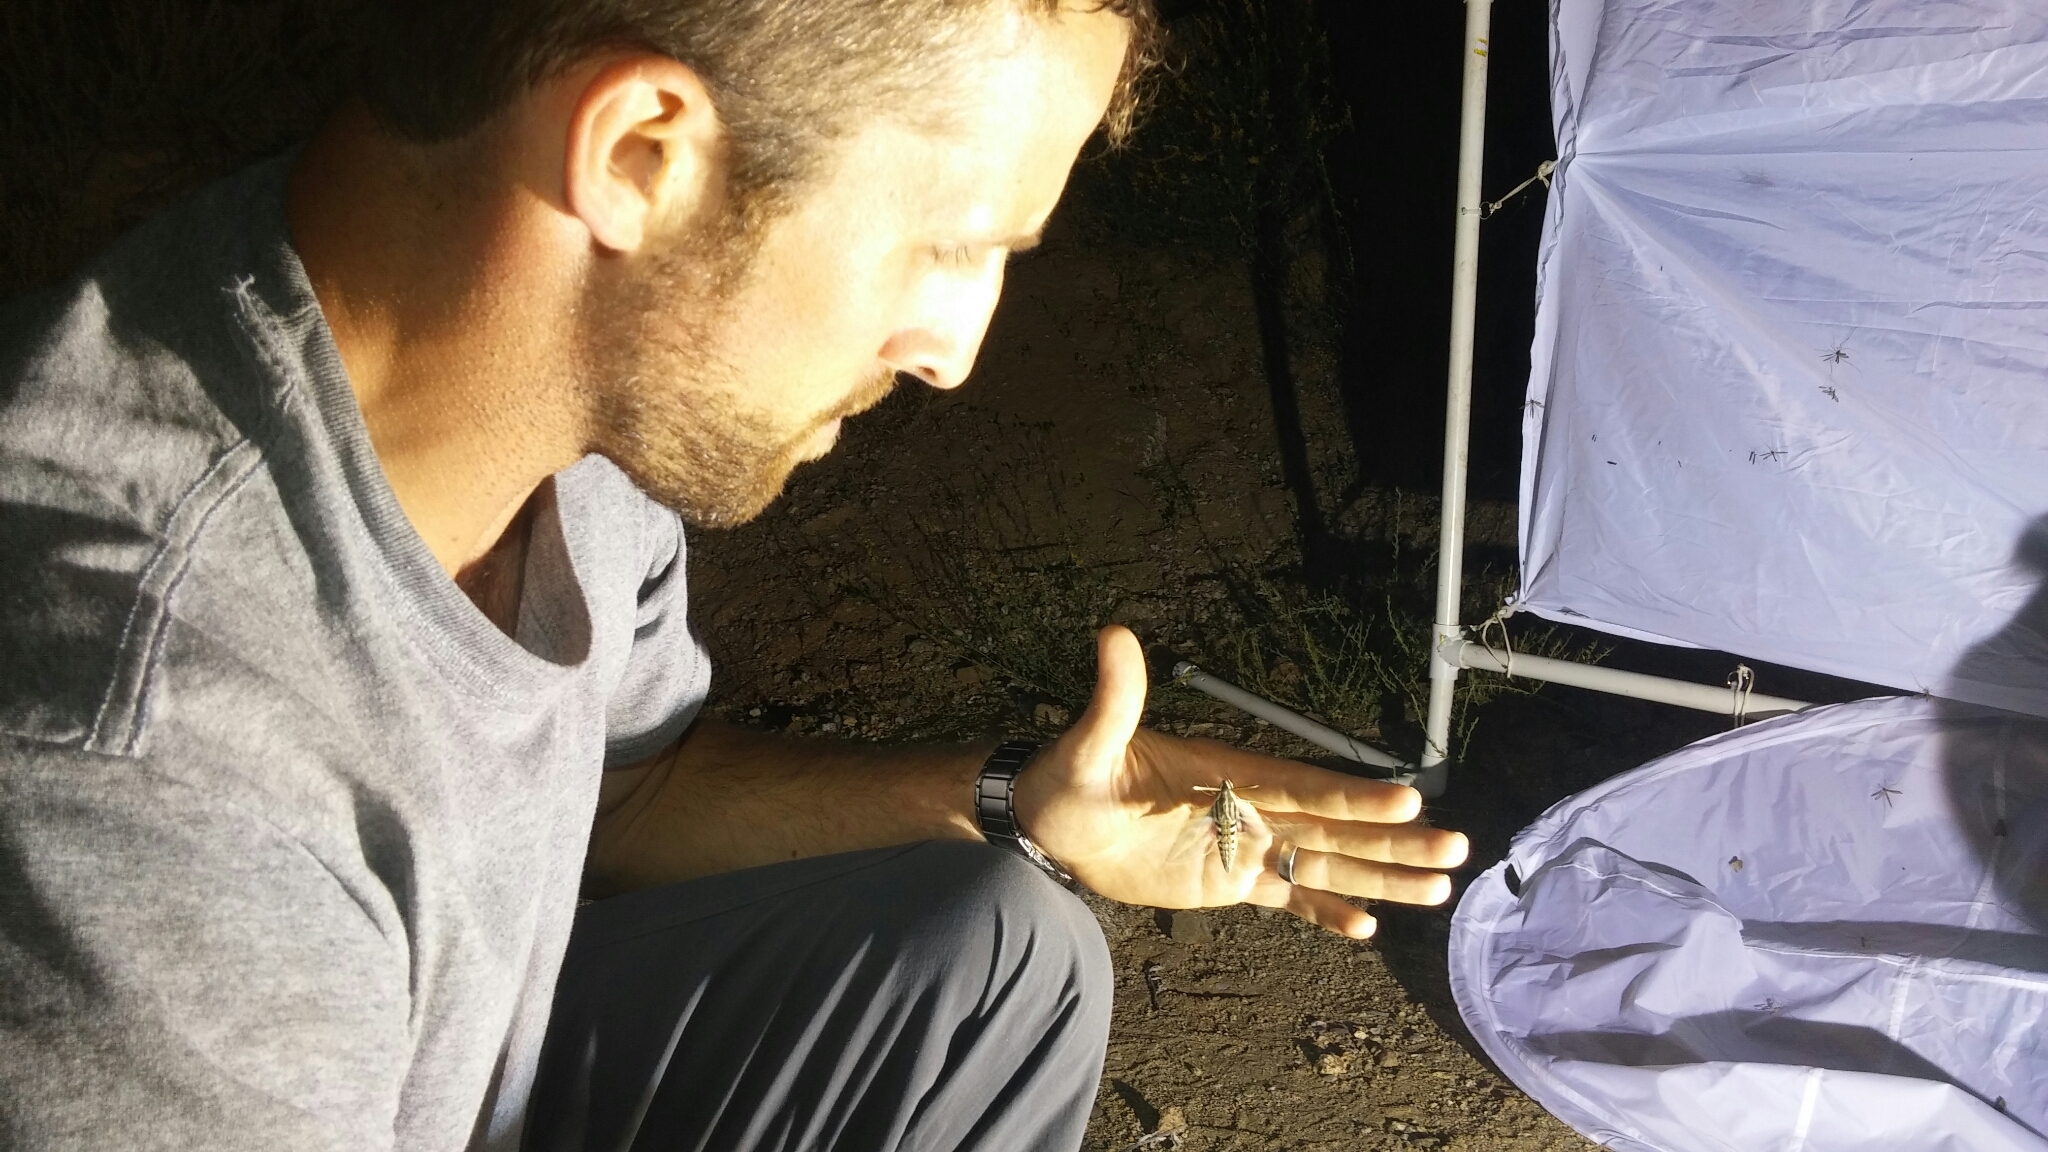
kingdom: Animalia
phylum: Arthropoda
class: Insecta
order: Lepidoptera
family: Sphingidae
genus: Hyles
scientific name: Hyles lineata
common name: White-lined sphinx
